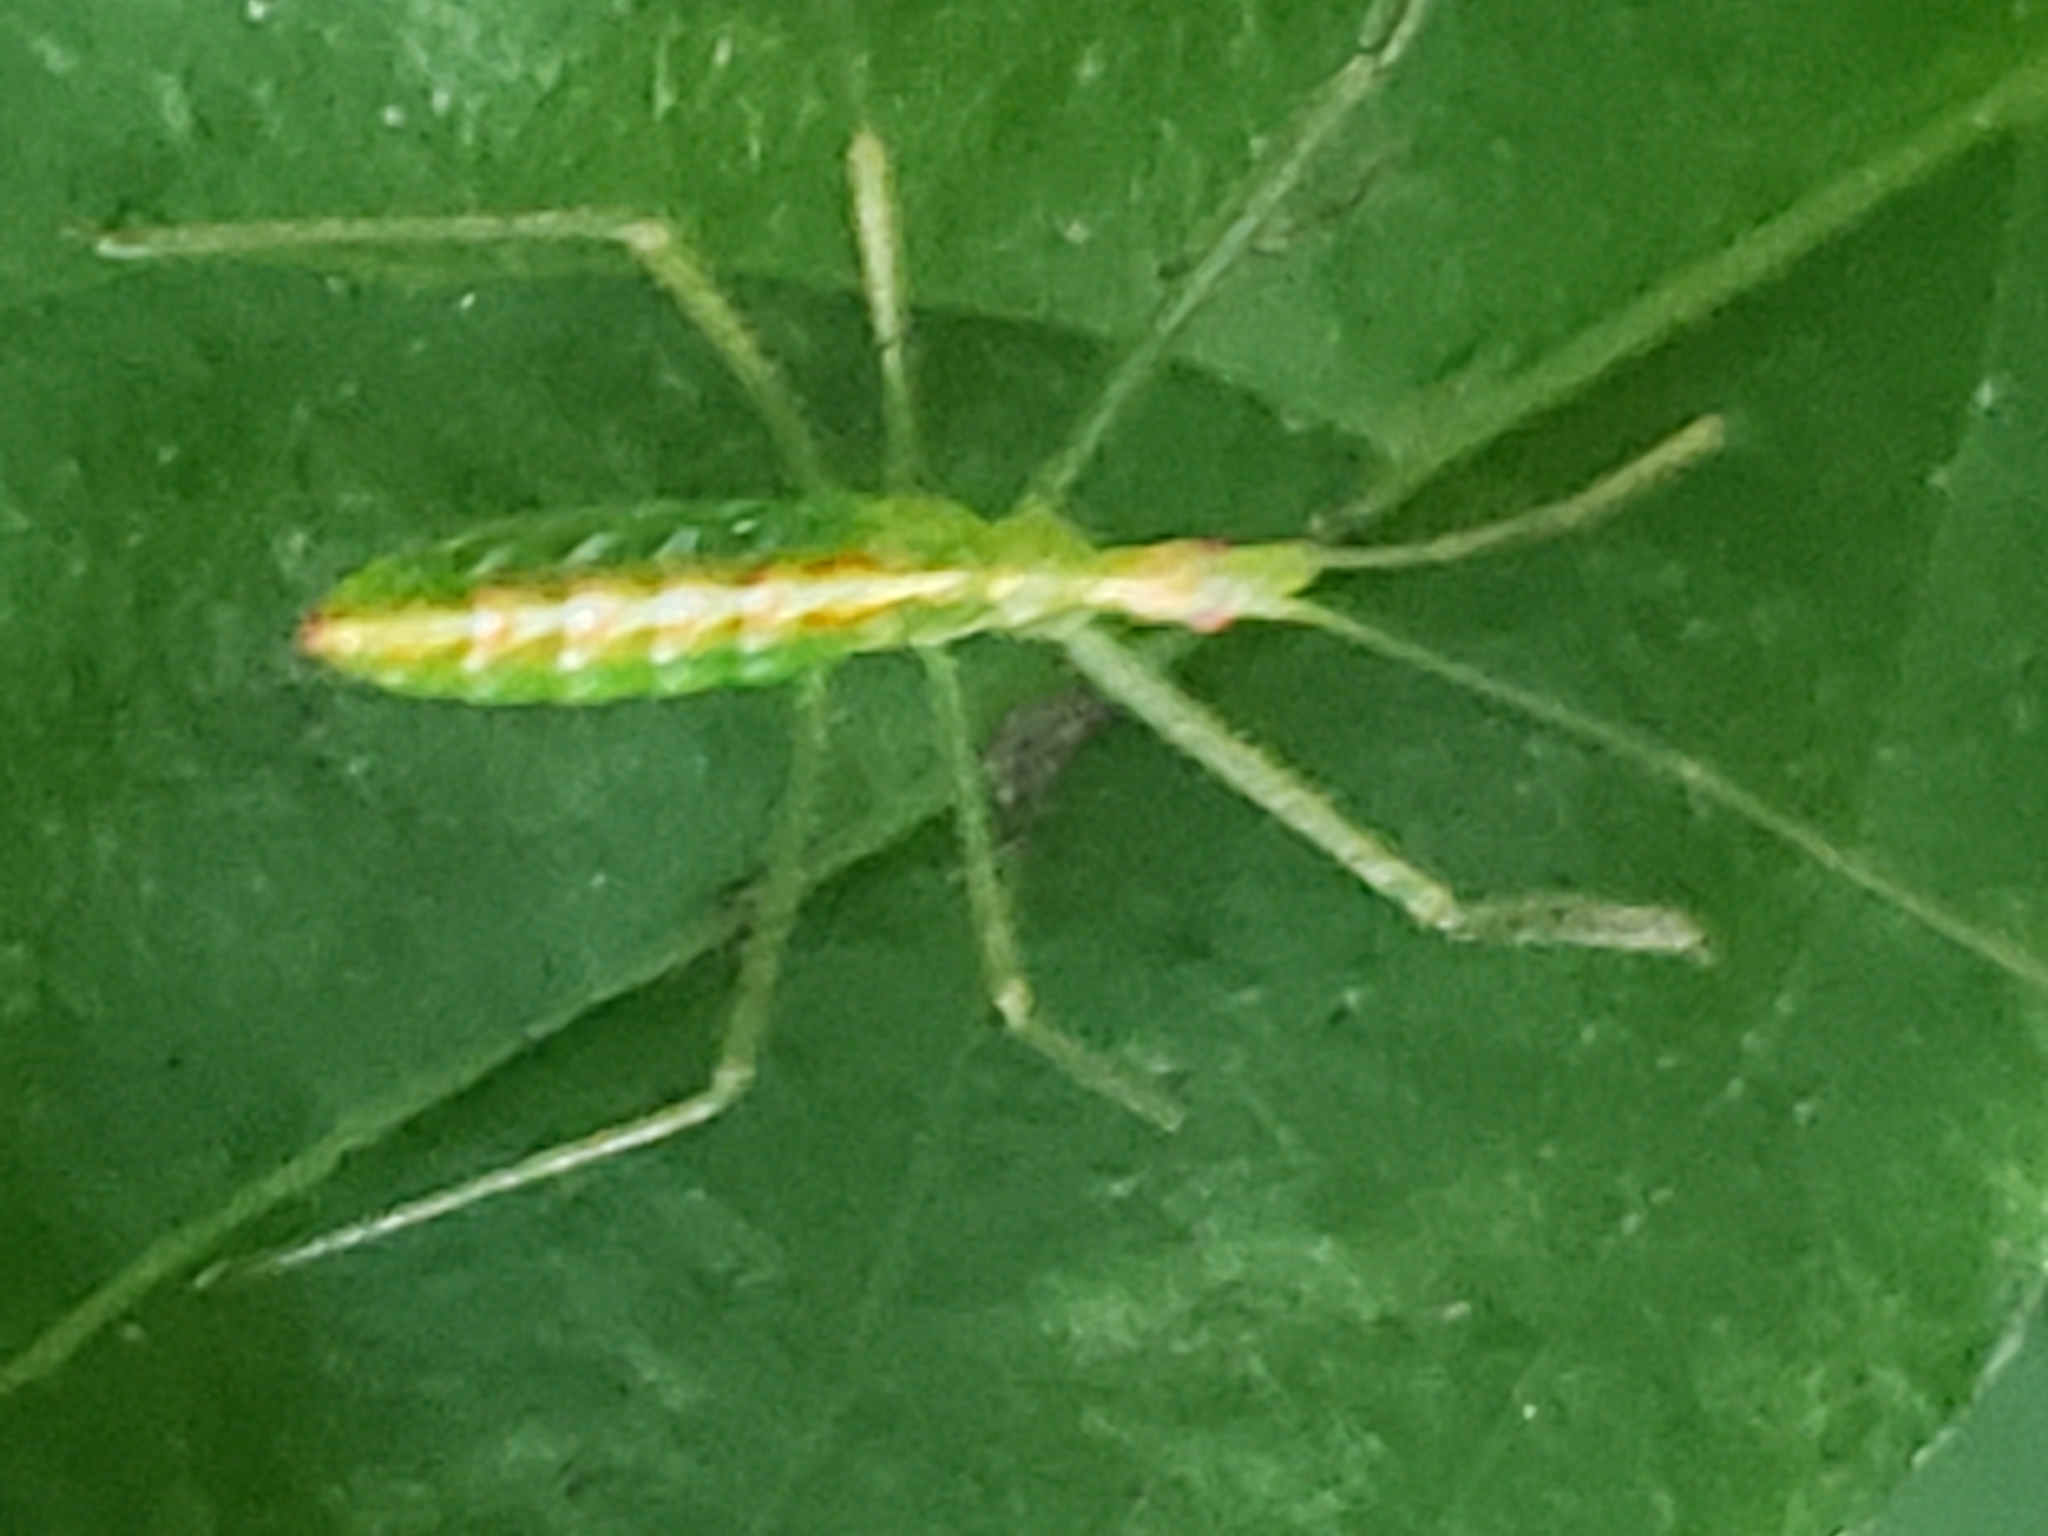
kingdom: Animalia
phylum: Arthropoda
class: Insecta
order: Hemiptera
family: Reduviidae
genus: Zelus
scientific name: Zelus luridus
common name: Pale green assassin bug
